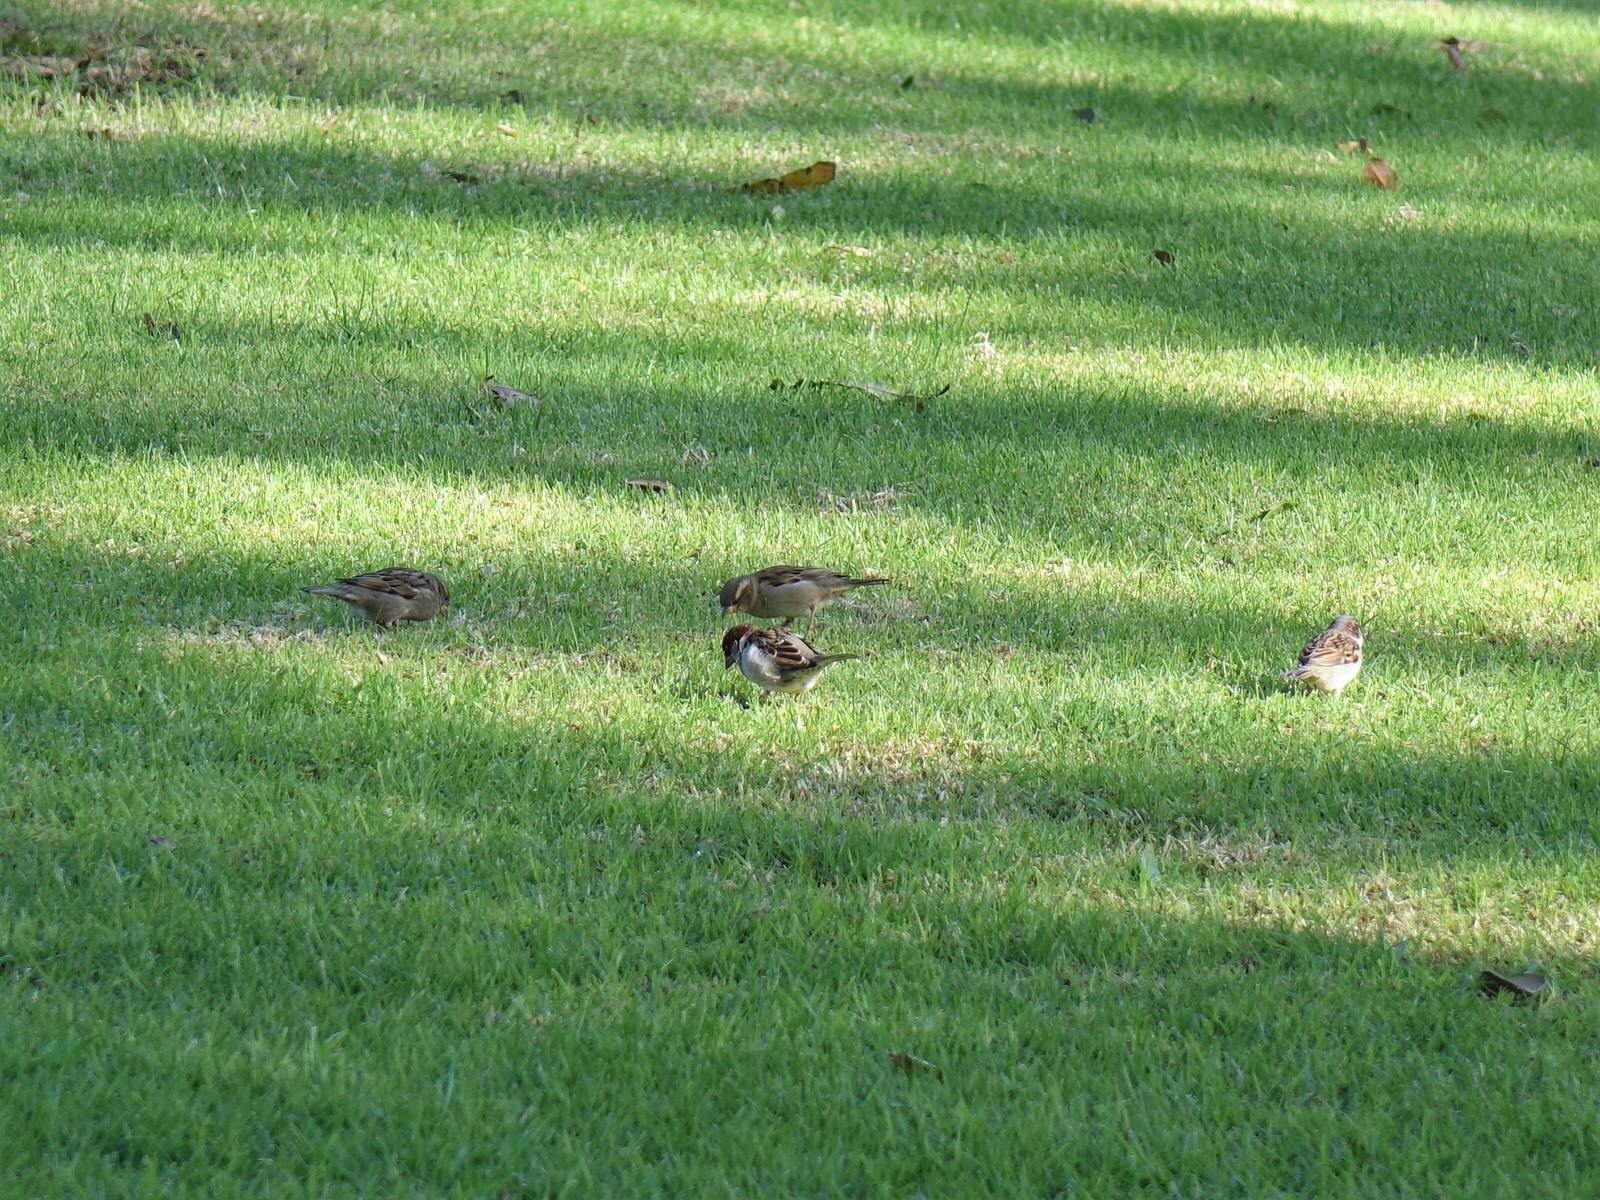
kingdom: Animalia
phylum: Chordata
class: Aves
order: Passeriformes
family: Passeridae
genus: Passer
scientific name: Passer domesticus
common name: House sparrow
